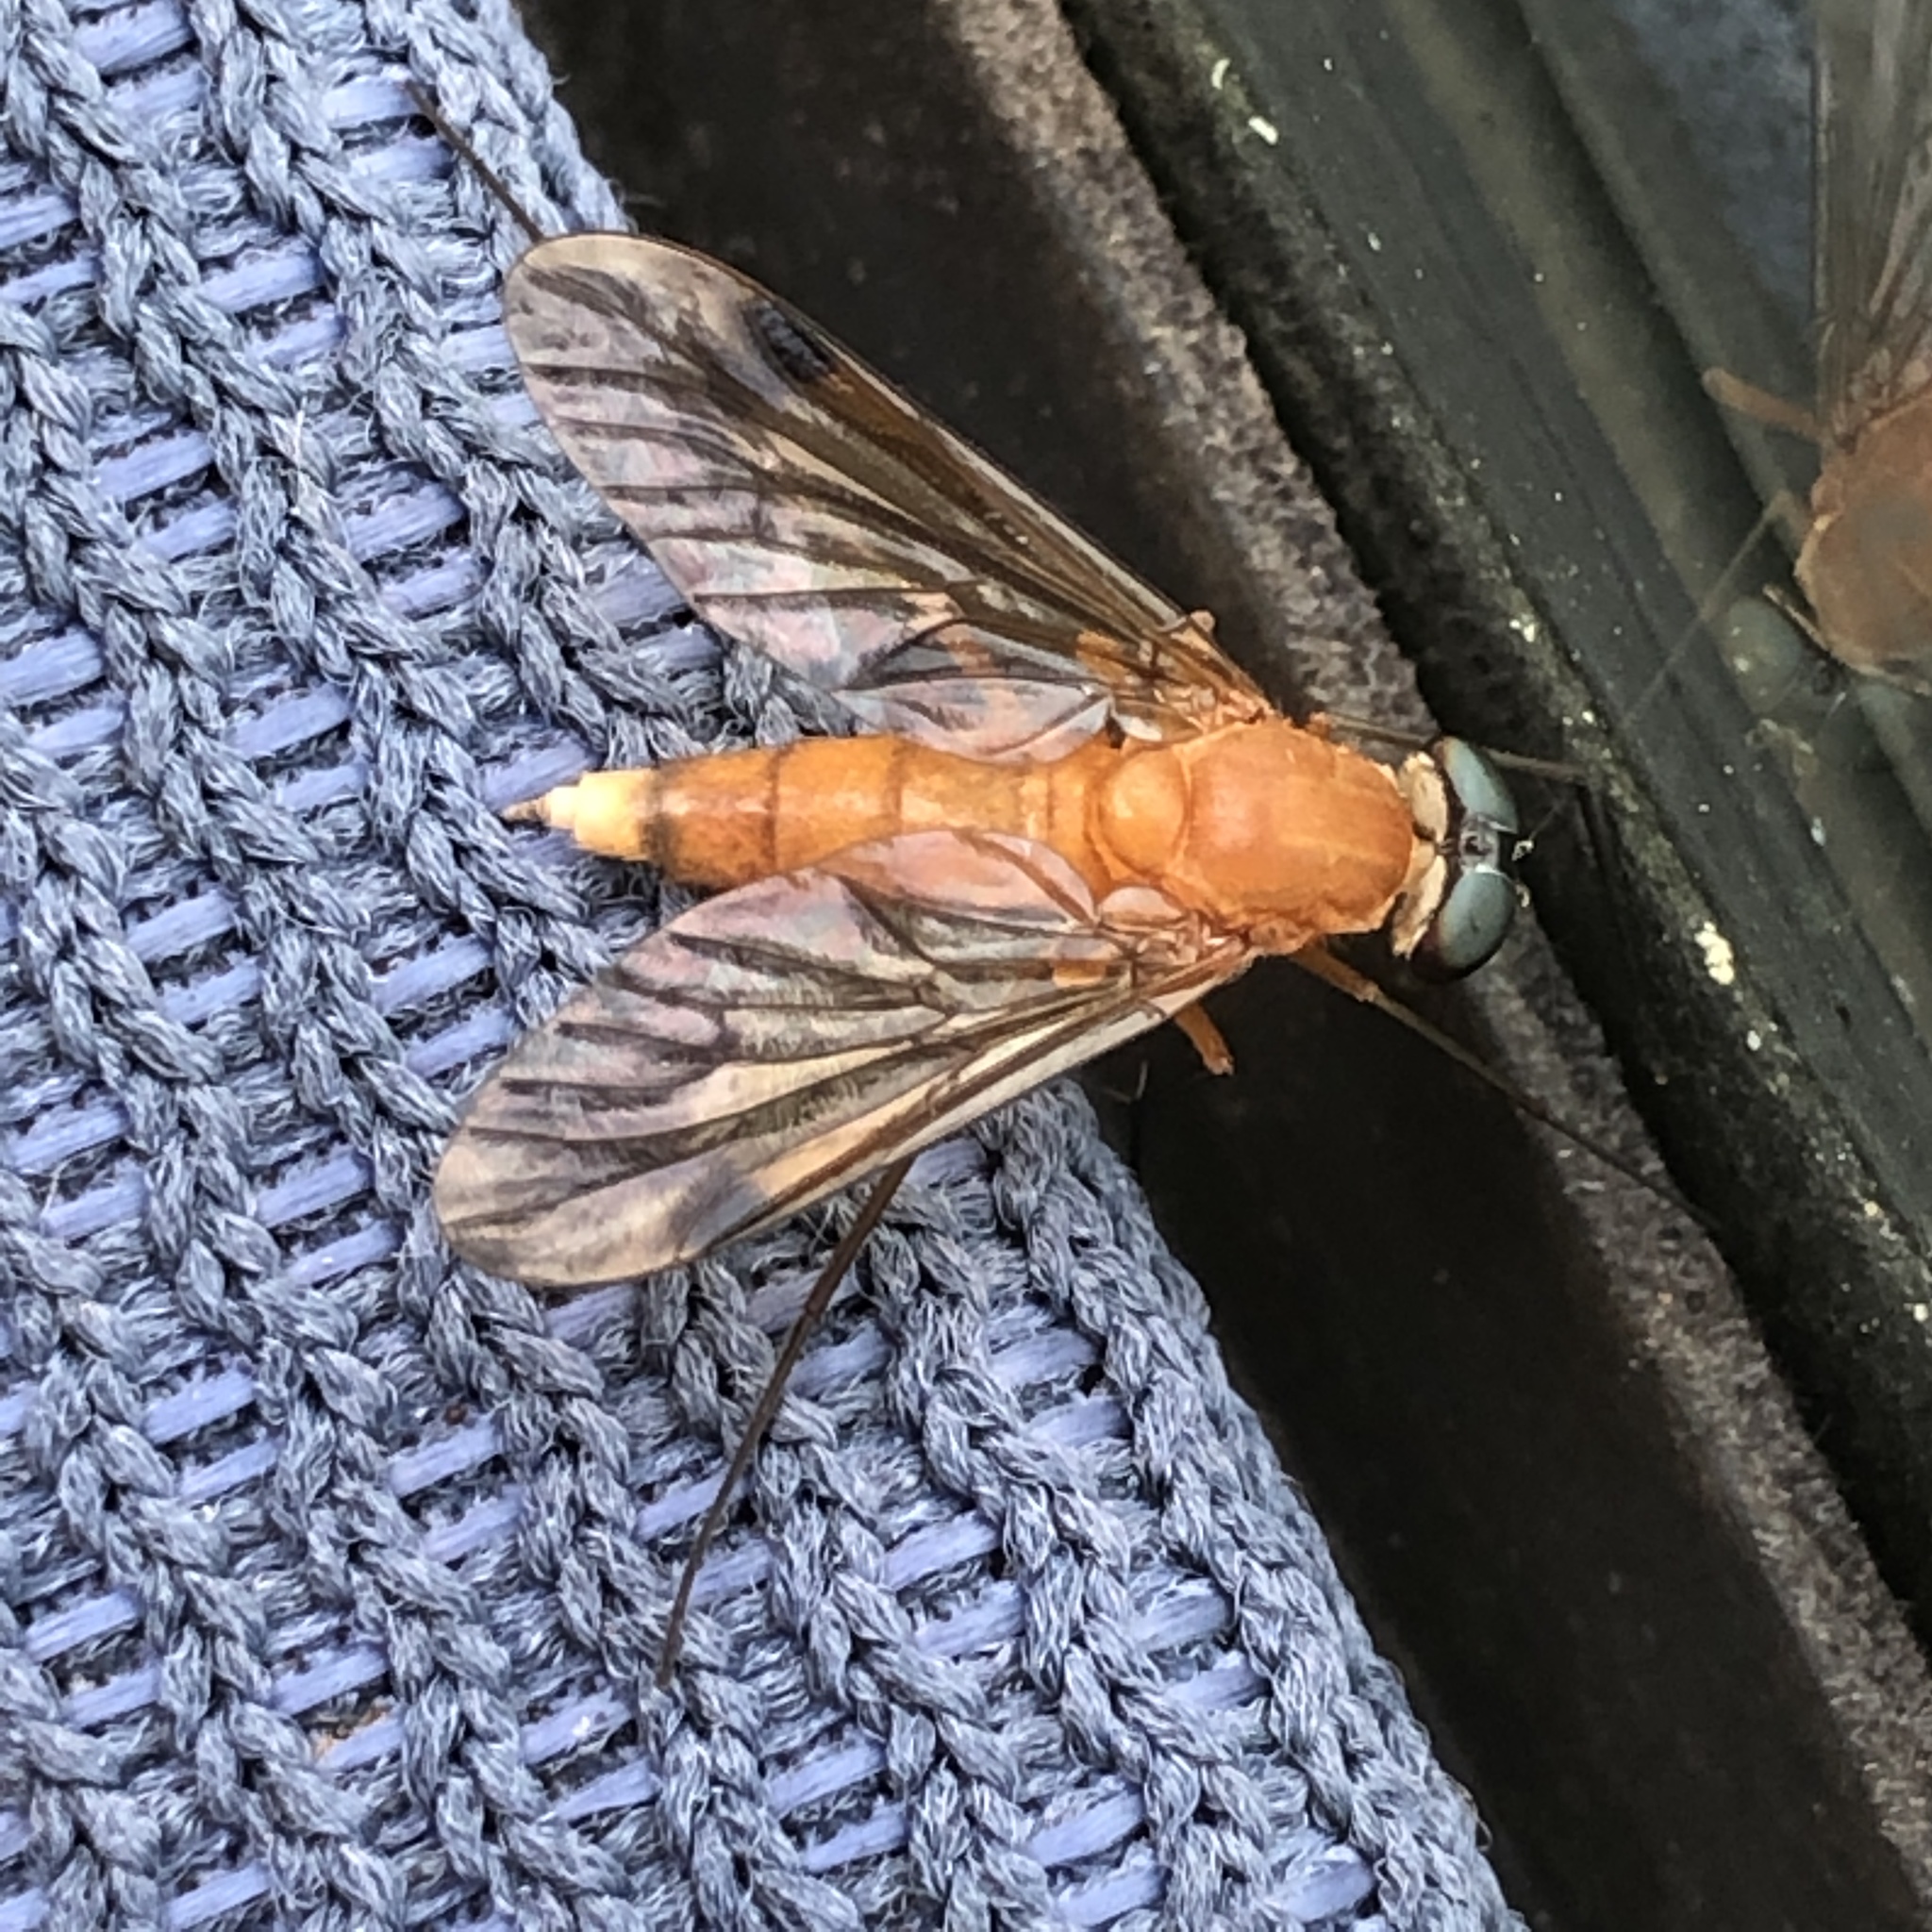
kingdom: Animalia
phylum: Arthropoda
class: Insecta
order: Diptera
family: Rhagionidae
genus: Chrysopilus
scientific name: Chrysopilus ferruginosus
